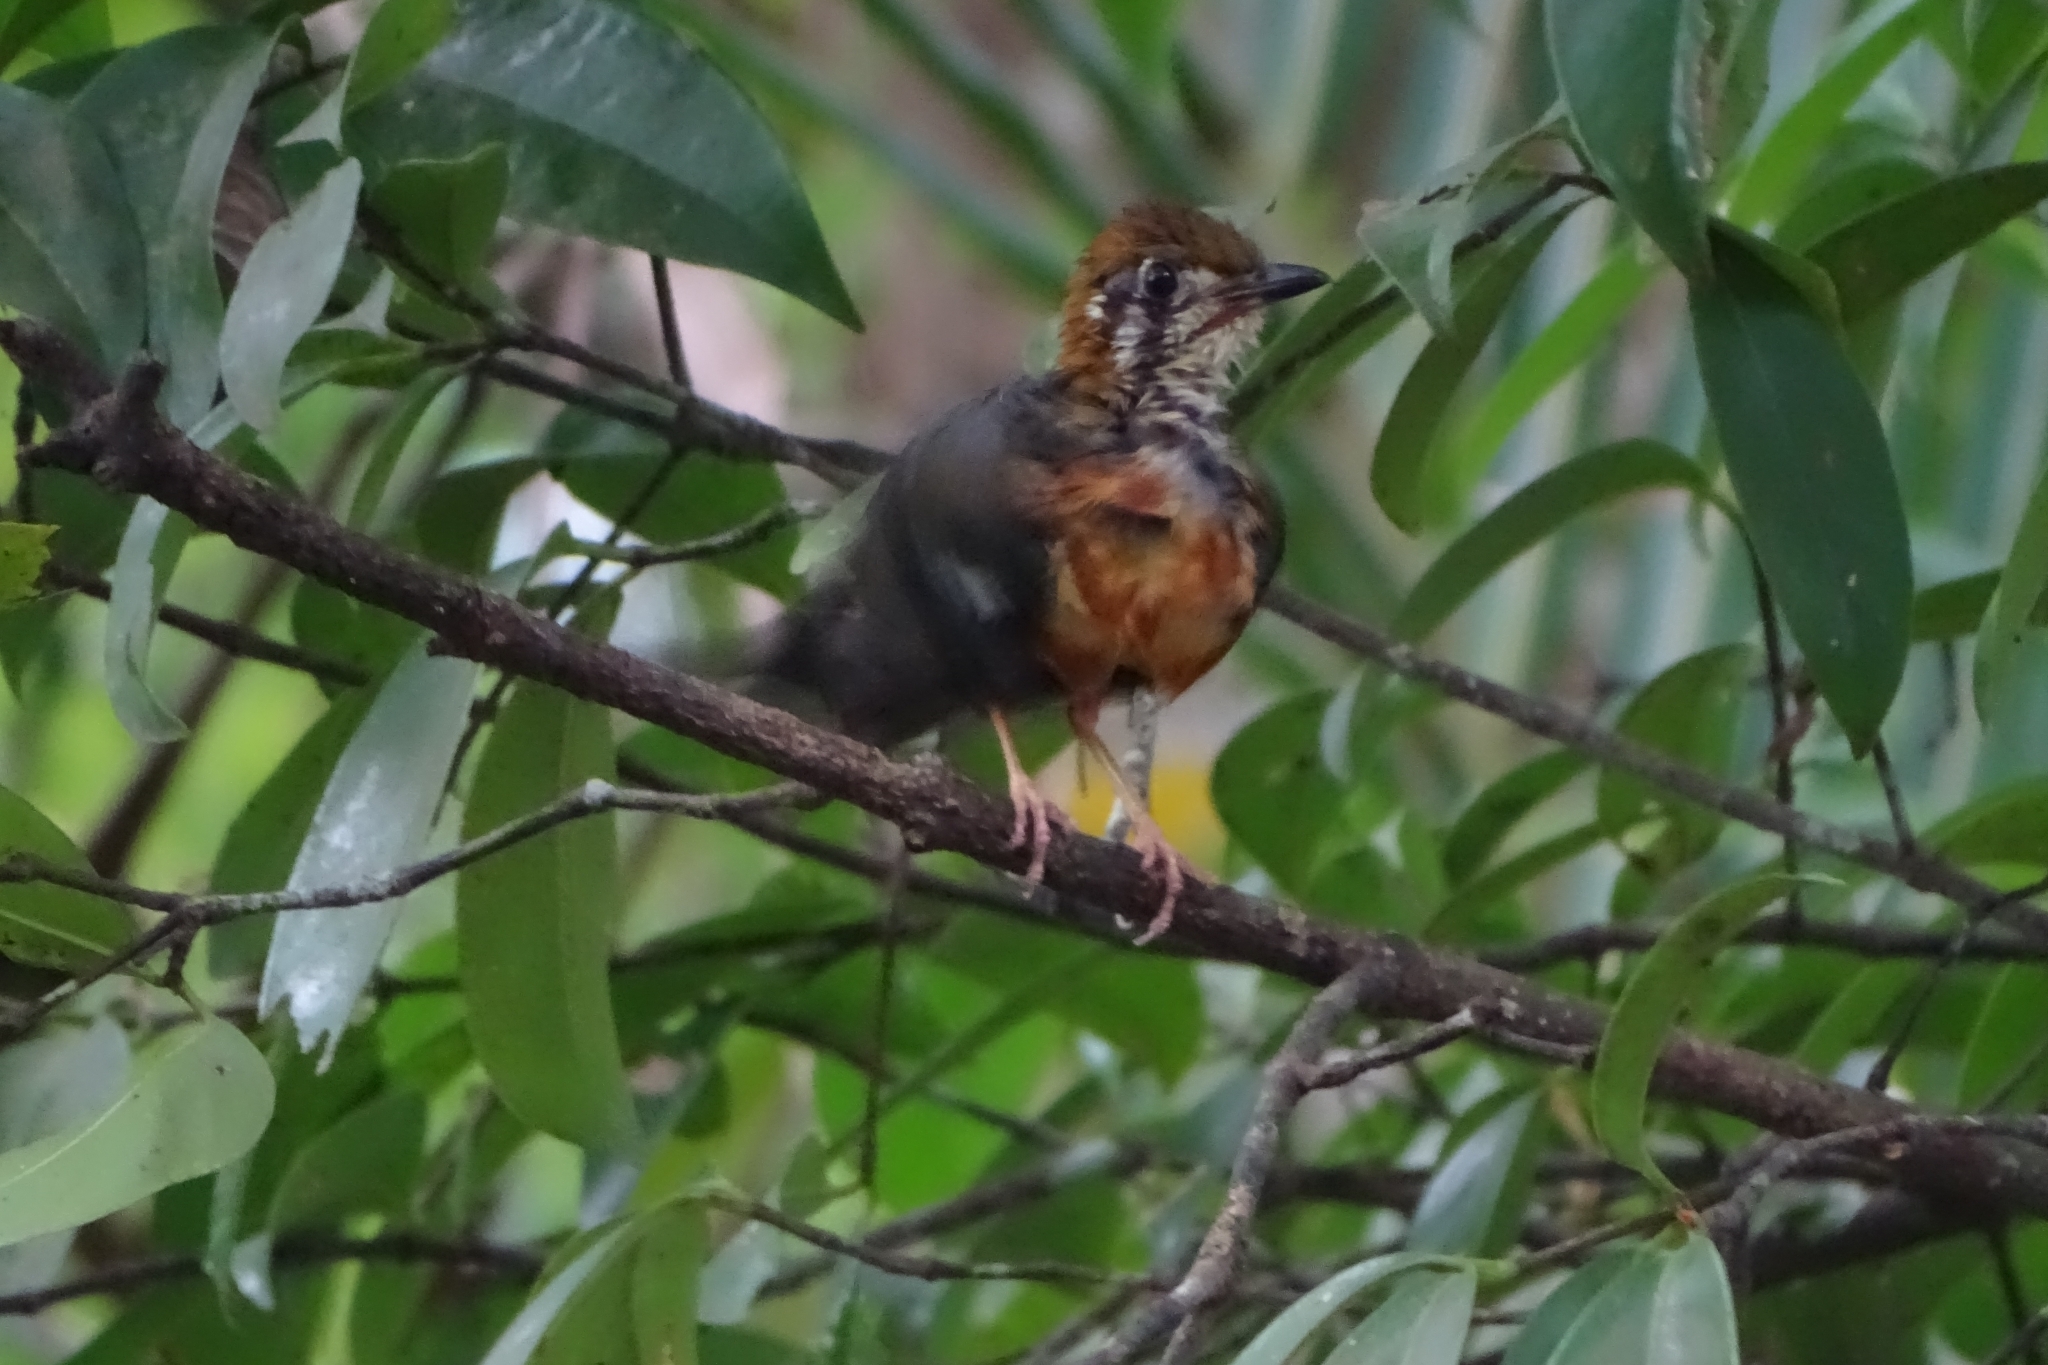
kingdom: Animalia
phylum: Chordata
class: Aves
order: Passeriformes
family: Turdidae
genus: Geokichla
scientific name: Geokichla citrina
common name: Orange-headed thrush
